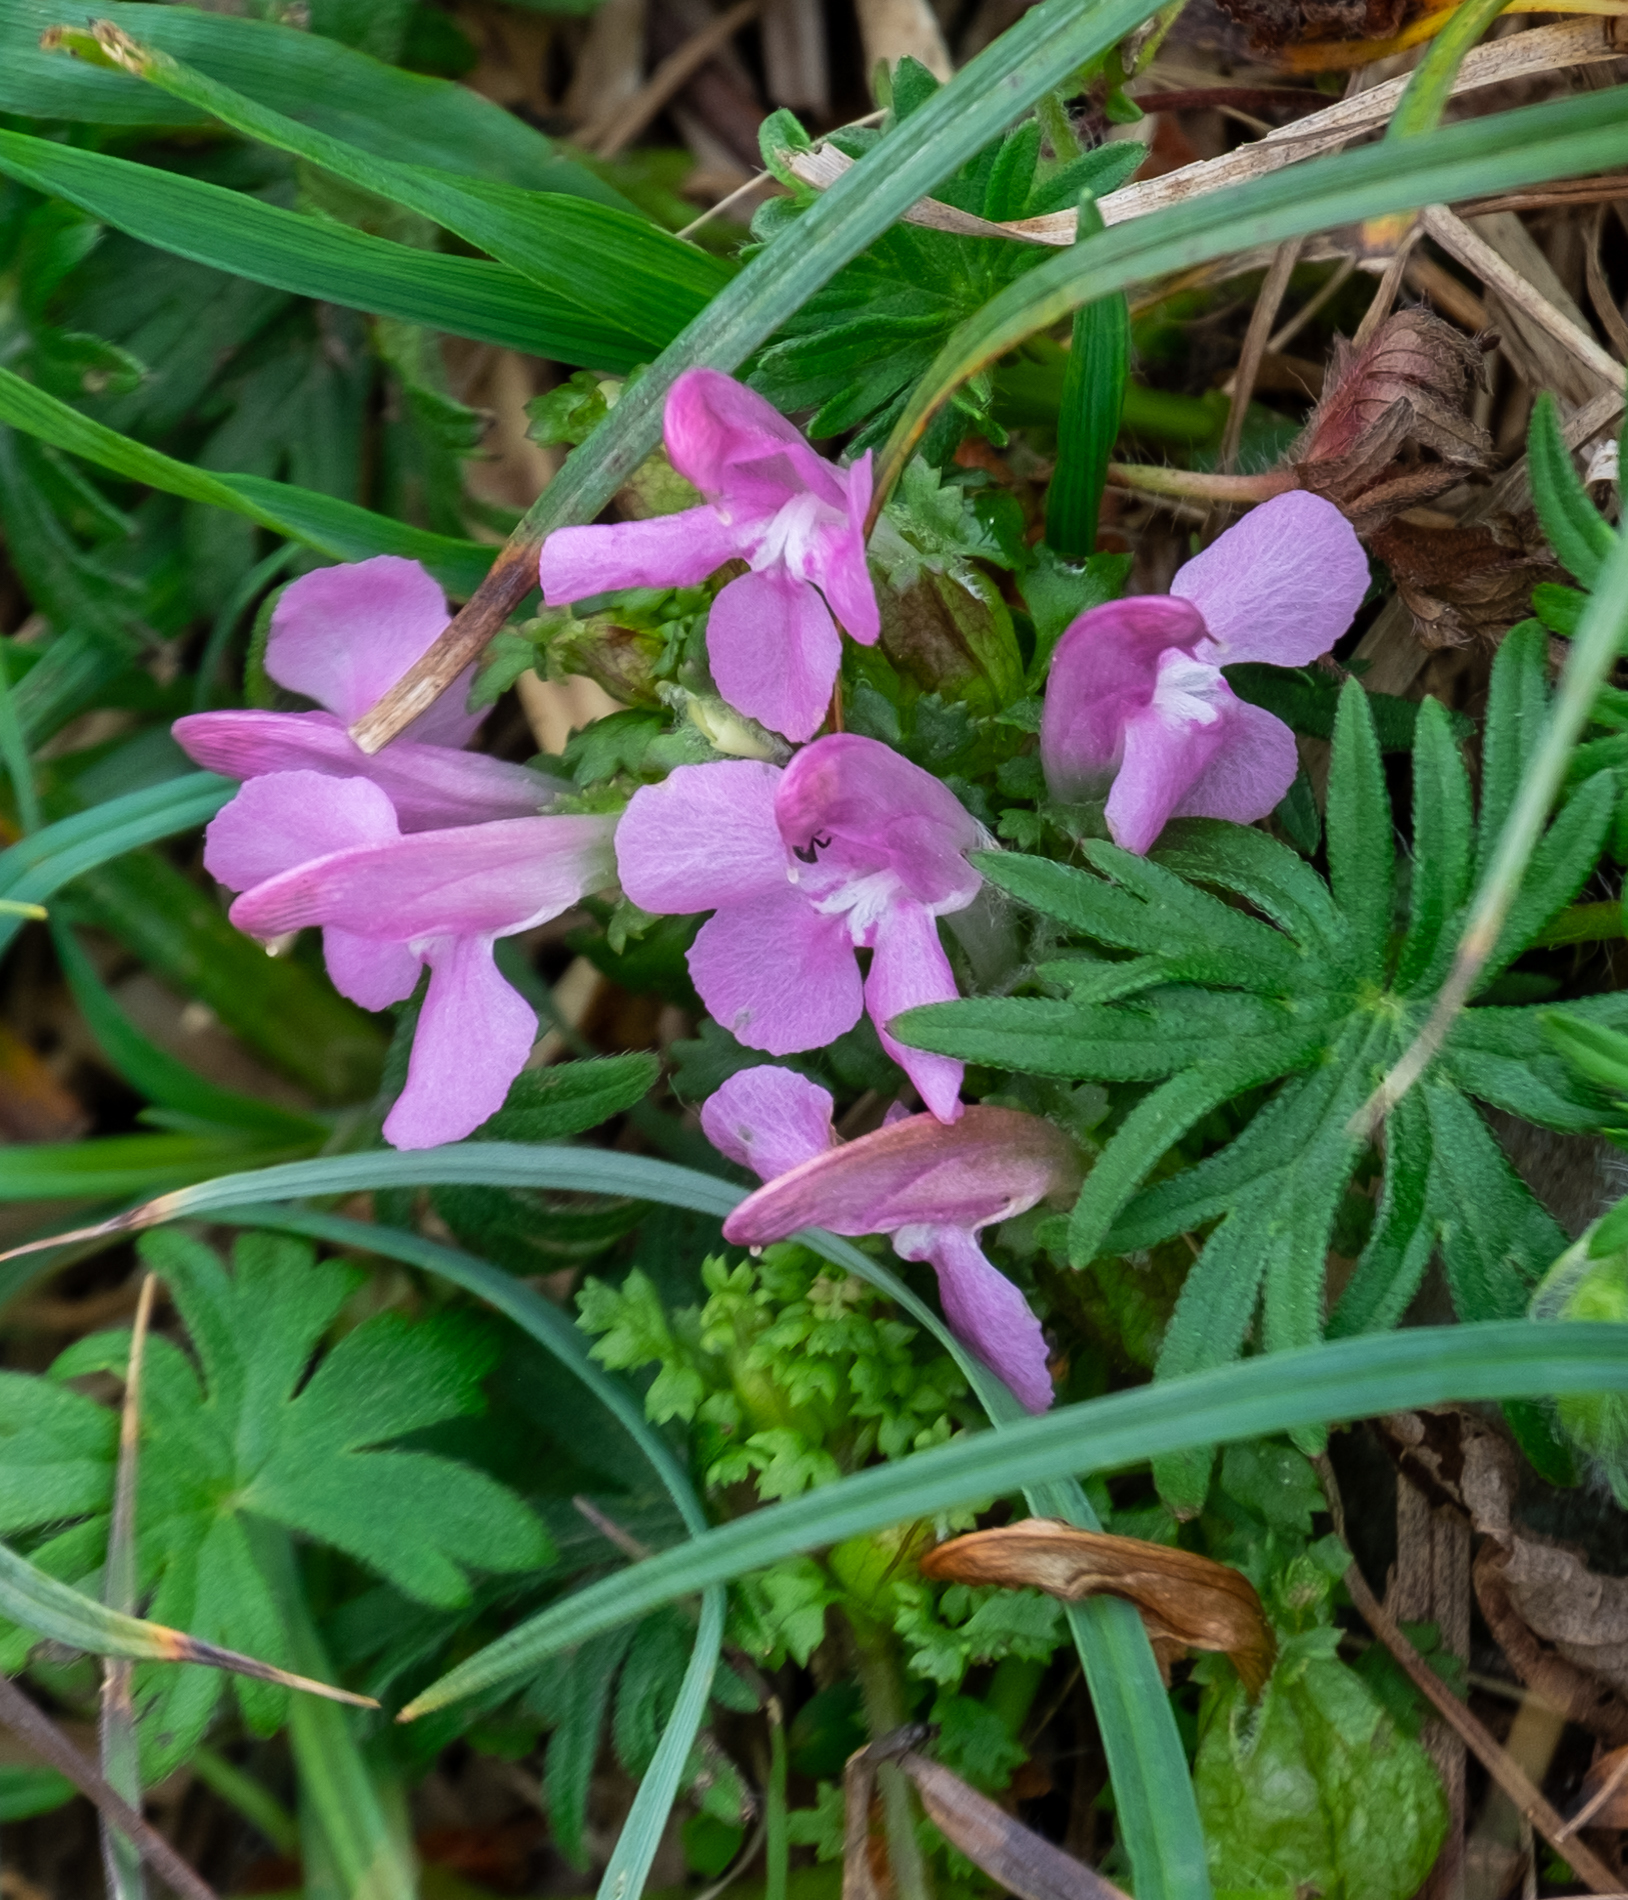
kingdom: Plantae
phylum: Tracheophyta
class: Magnoliopsida
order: Lamiales
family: Orobanchaceae
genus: Pedicularis
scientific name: Pedicularis sylvatica
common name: Lousewort
